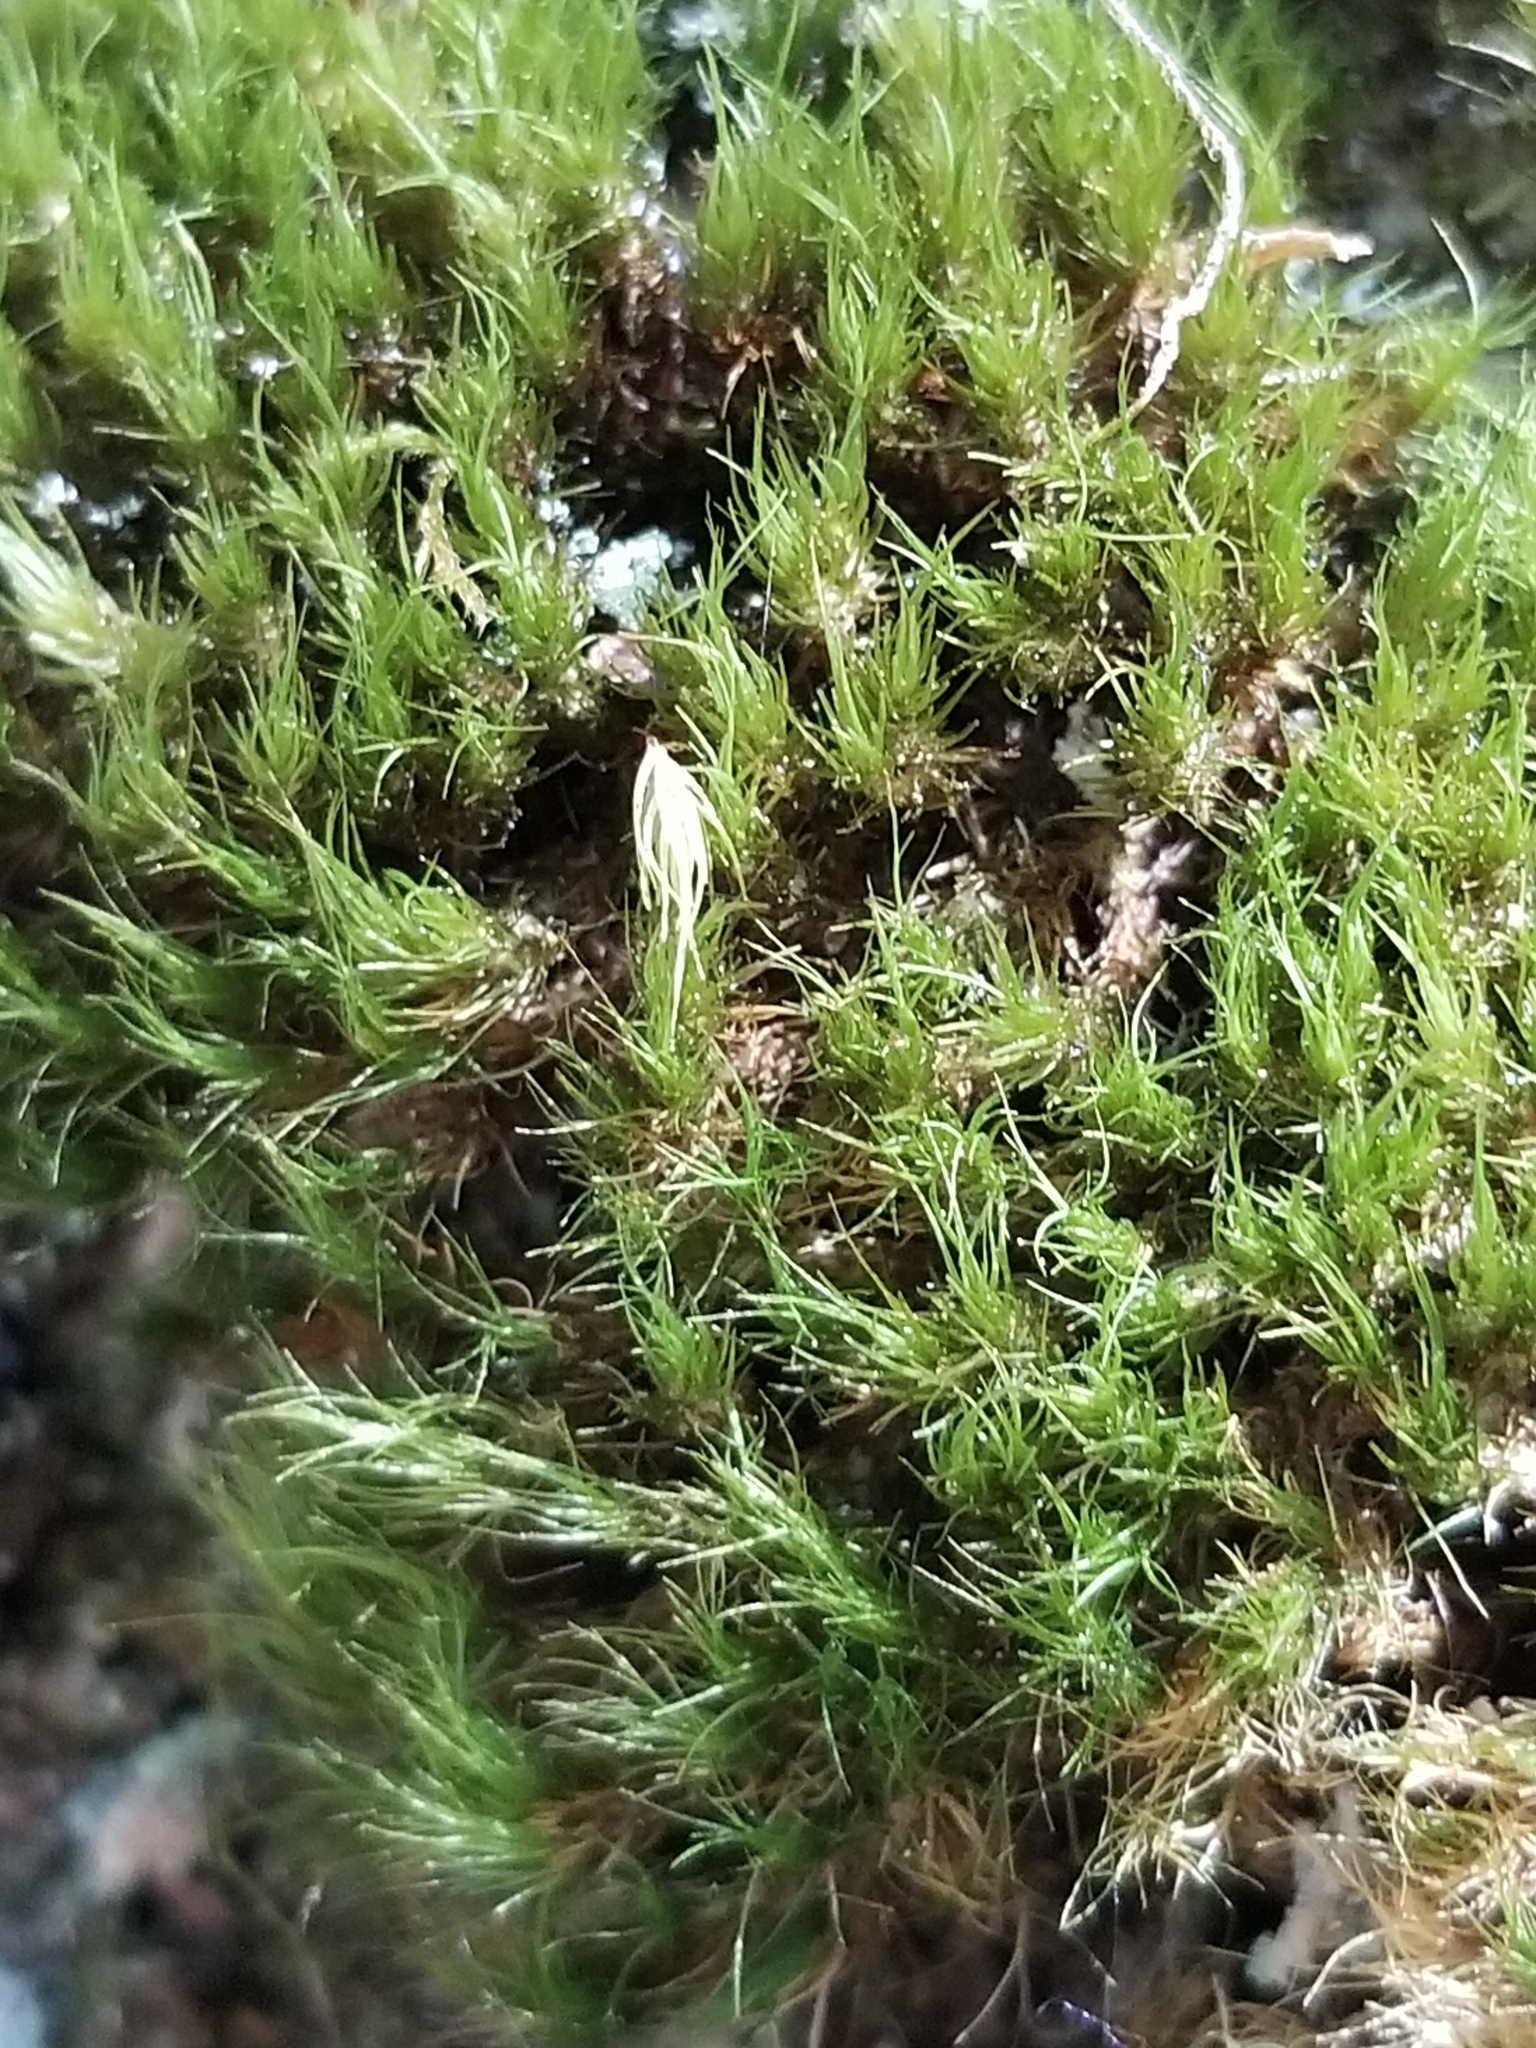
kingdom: Plantae
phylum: Bryophyta
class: Bryopsida
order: Dicranales
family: Dicranaceae
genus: Dicranum
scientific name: Dicranum viride
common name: Green broom moss
